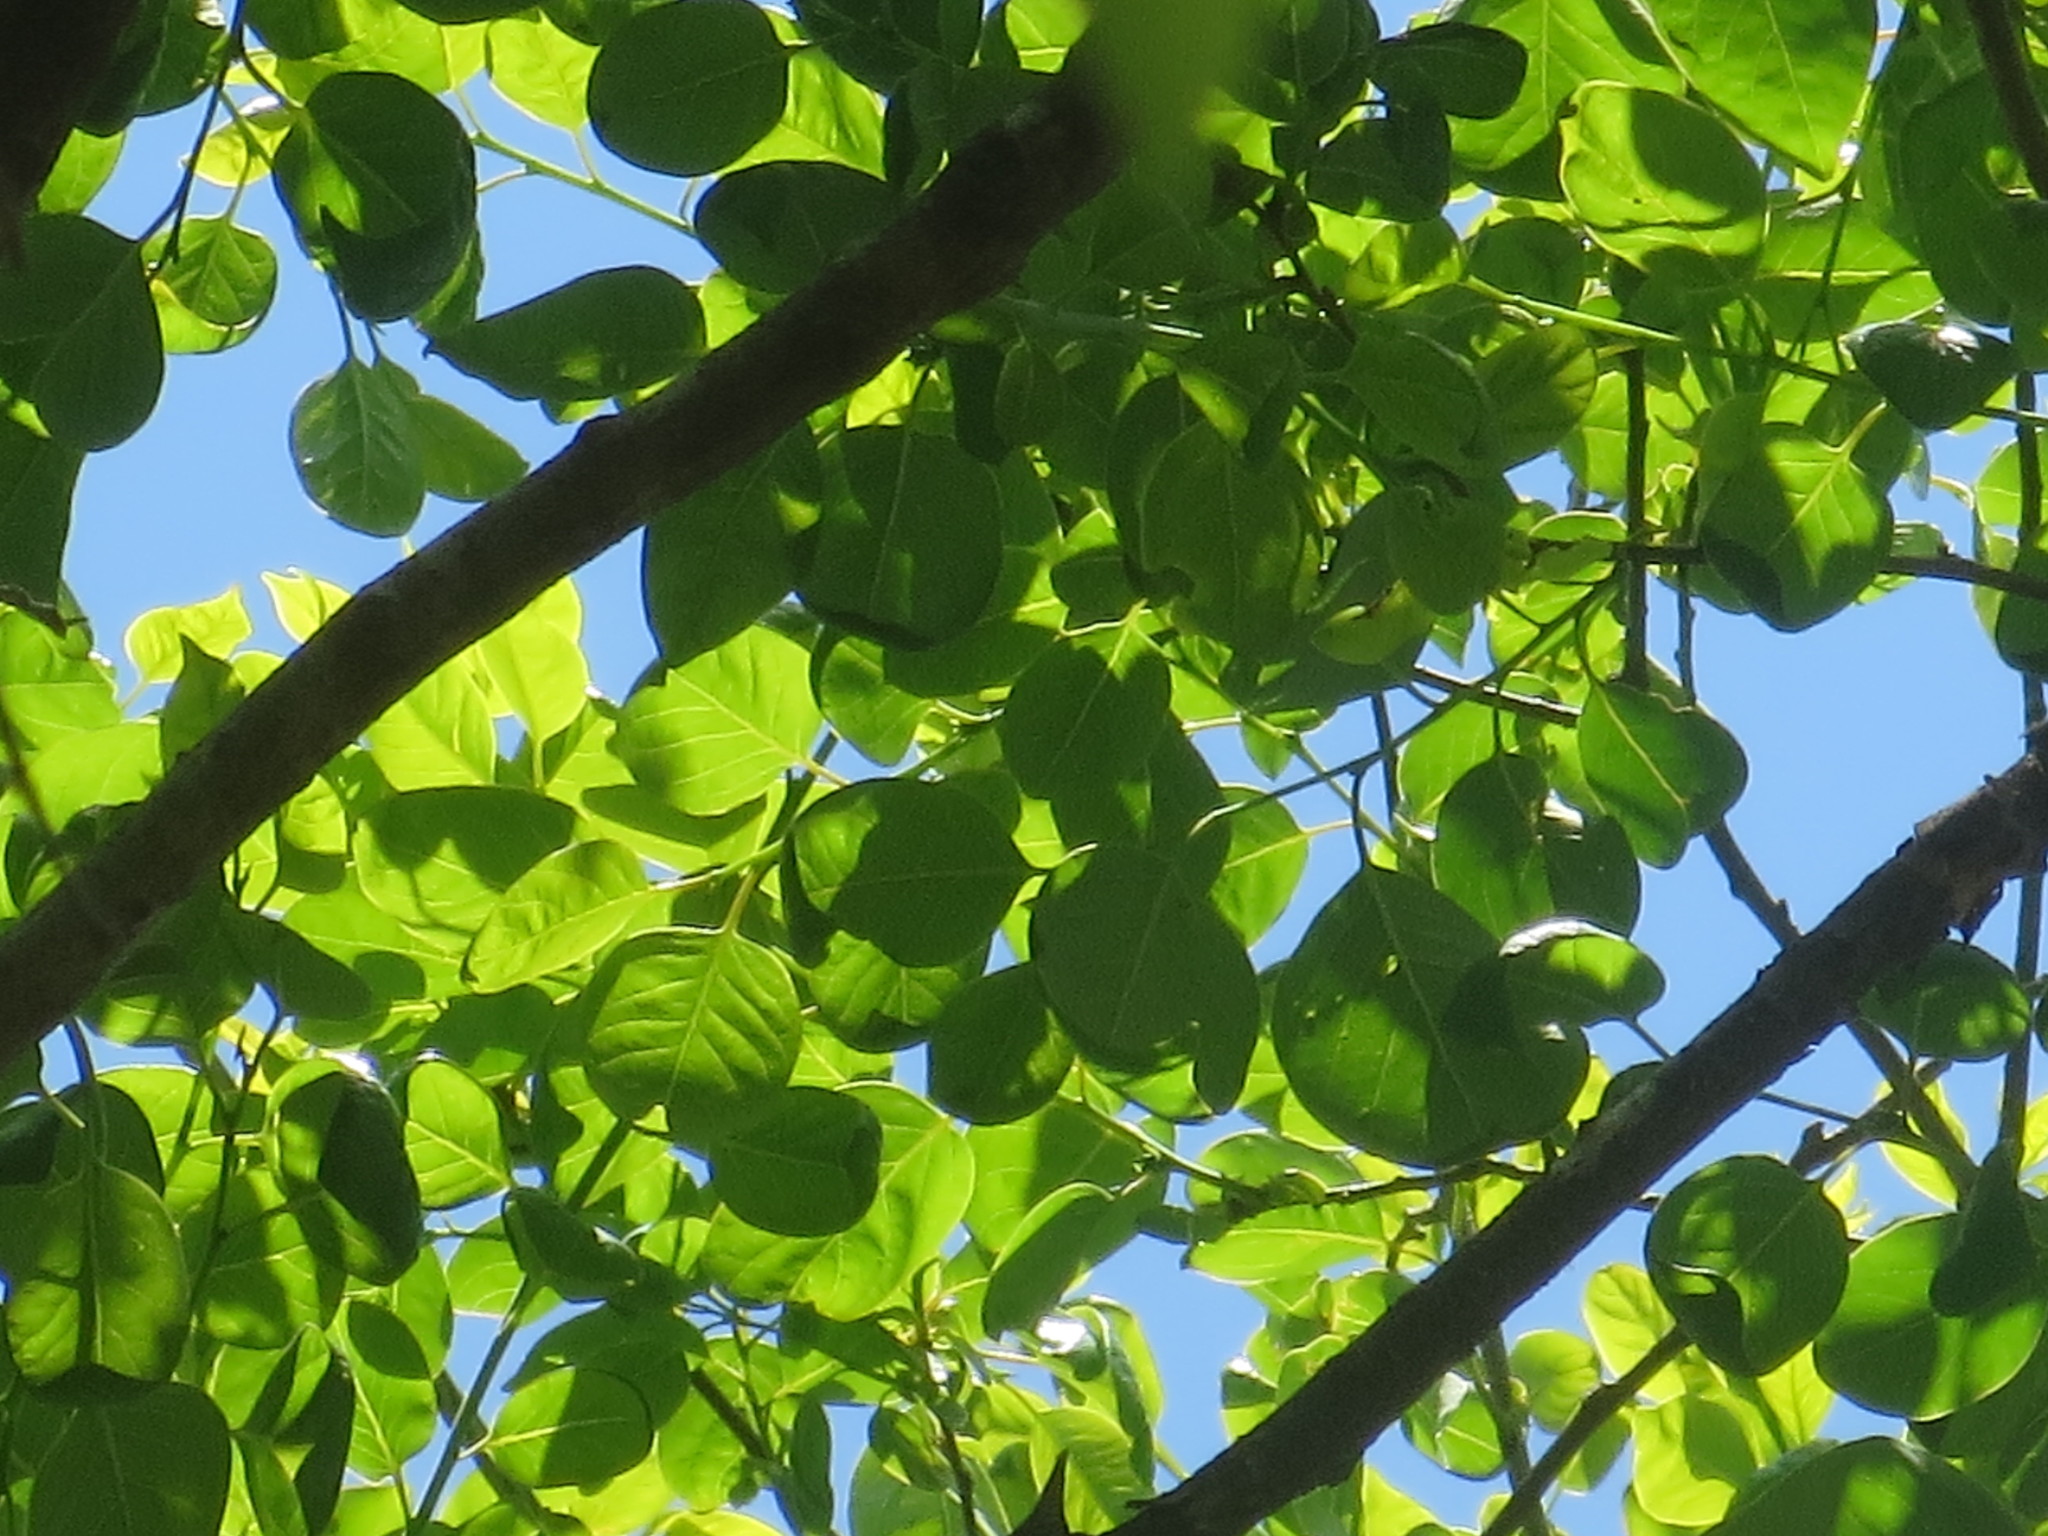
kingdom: Plantae
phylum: Tracheophyta
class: Magnoliopsida
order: Ericales
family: Ebenaceae
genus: Diospyros
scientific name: Diospyros virginiana
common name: Persimmon
